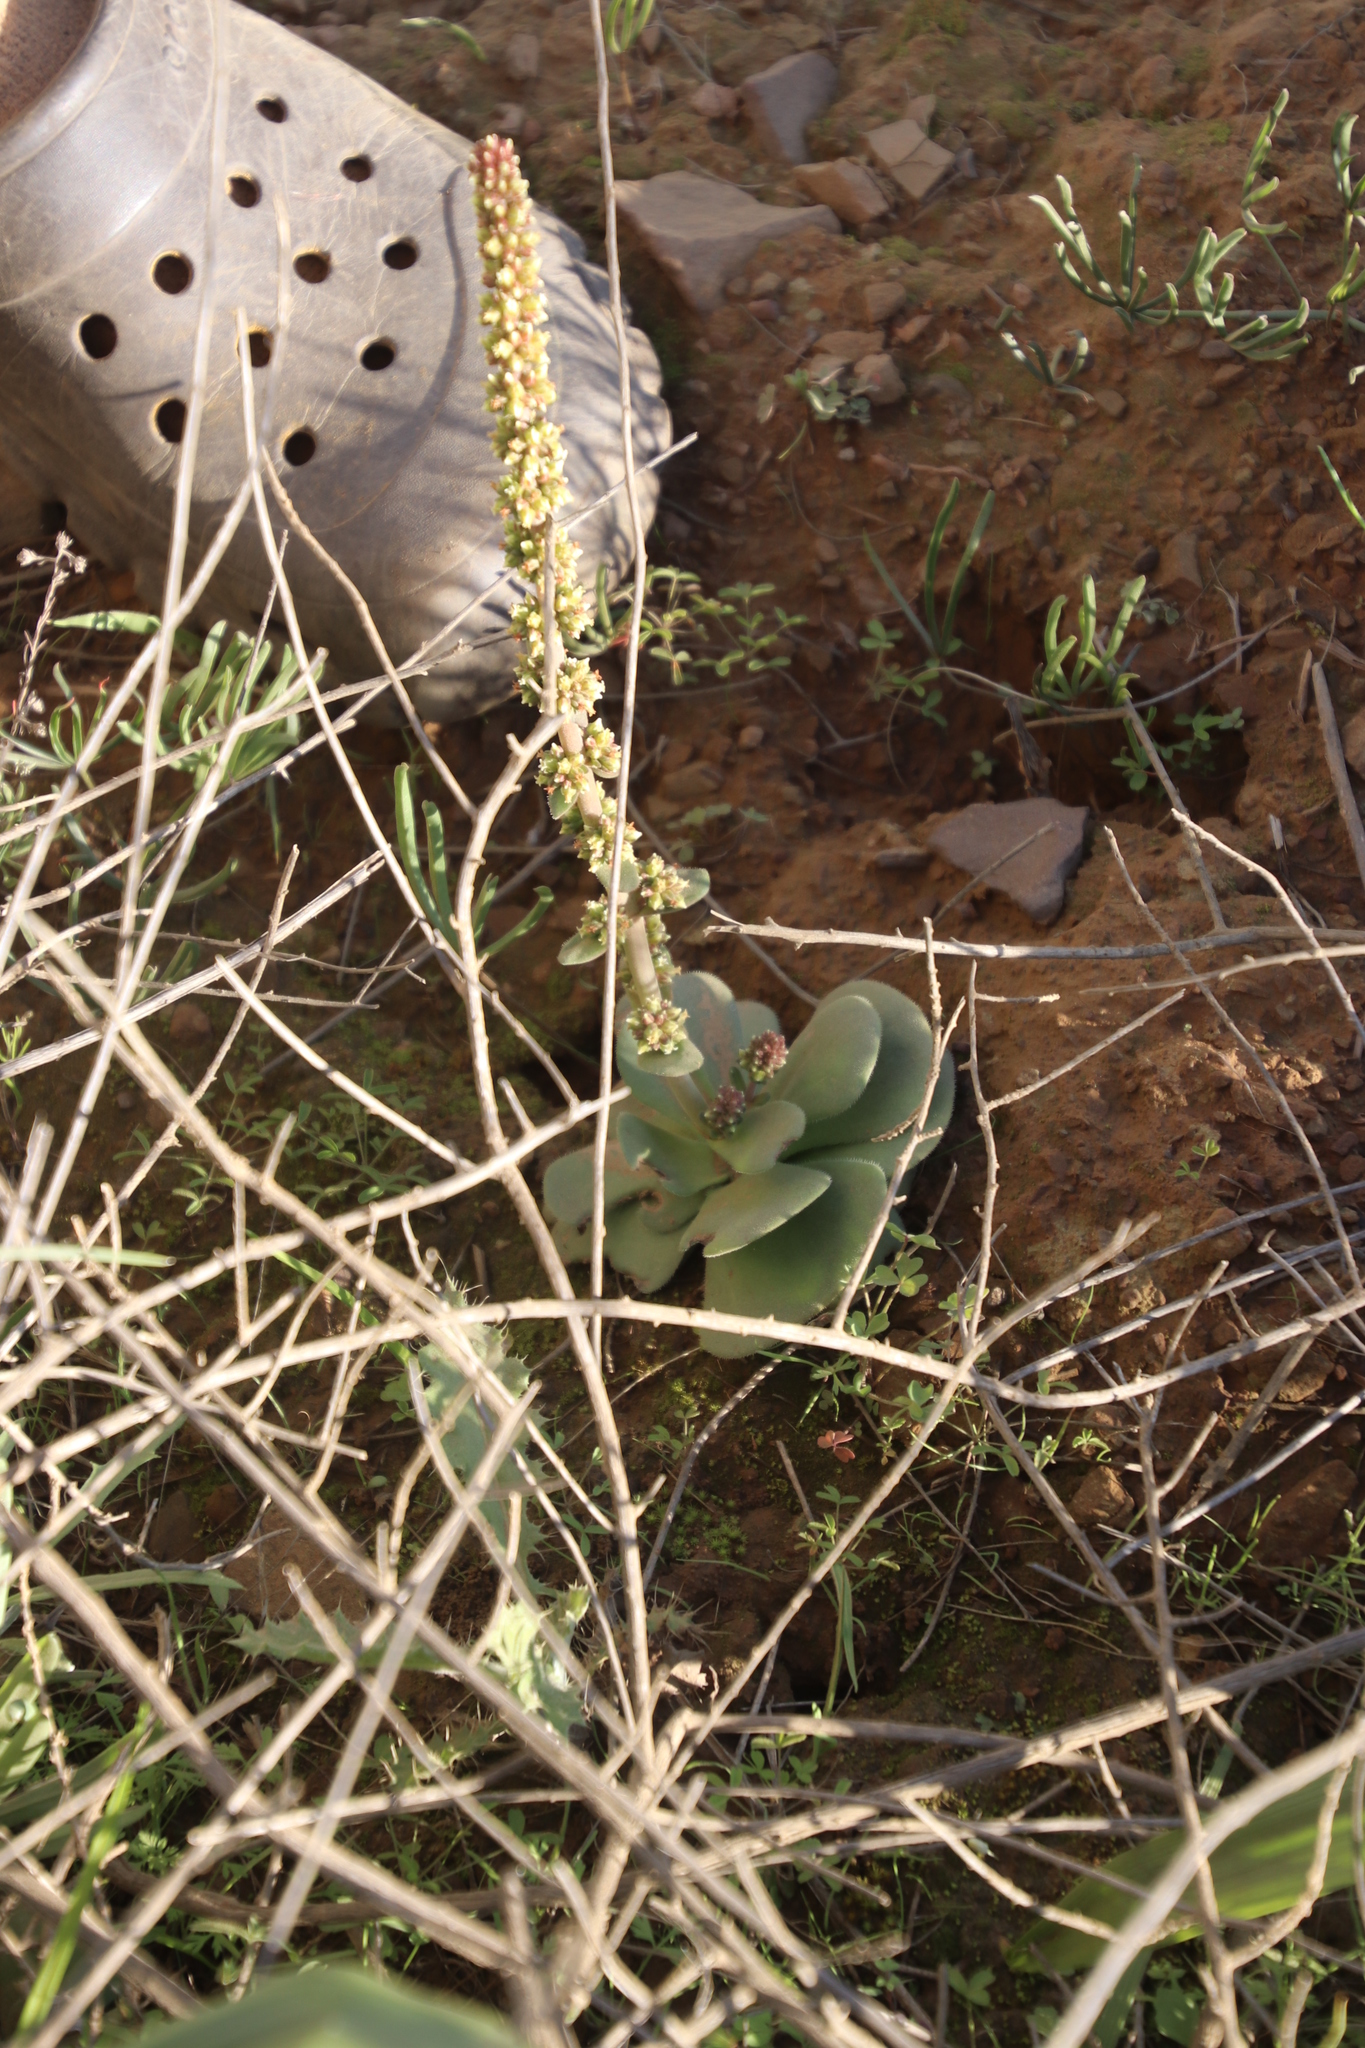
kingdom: Plantae
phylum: Tracheophyta
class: Magnoliopsida
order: Saxifragales
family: Crassulaceae
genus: Crassula
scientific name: Crassula tomentosa
